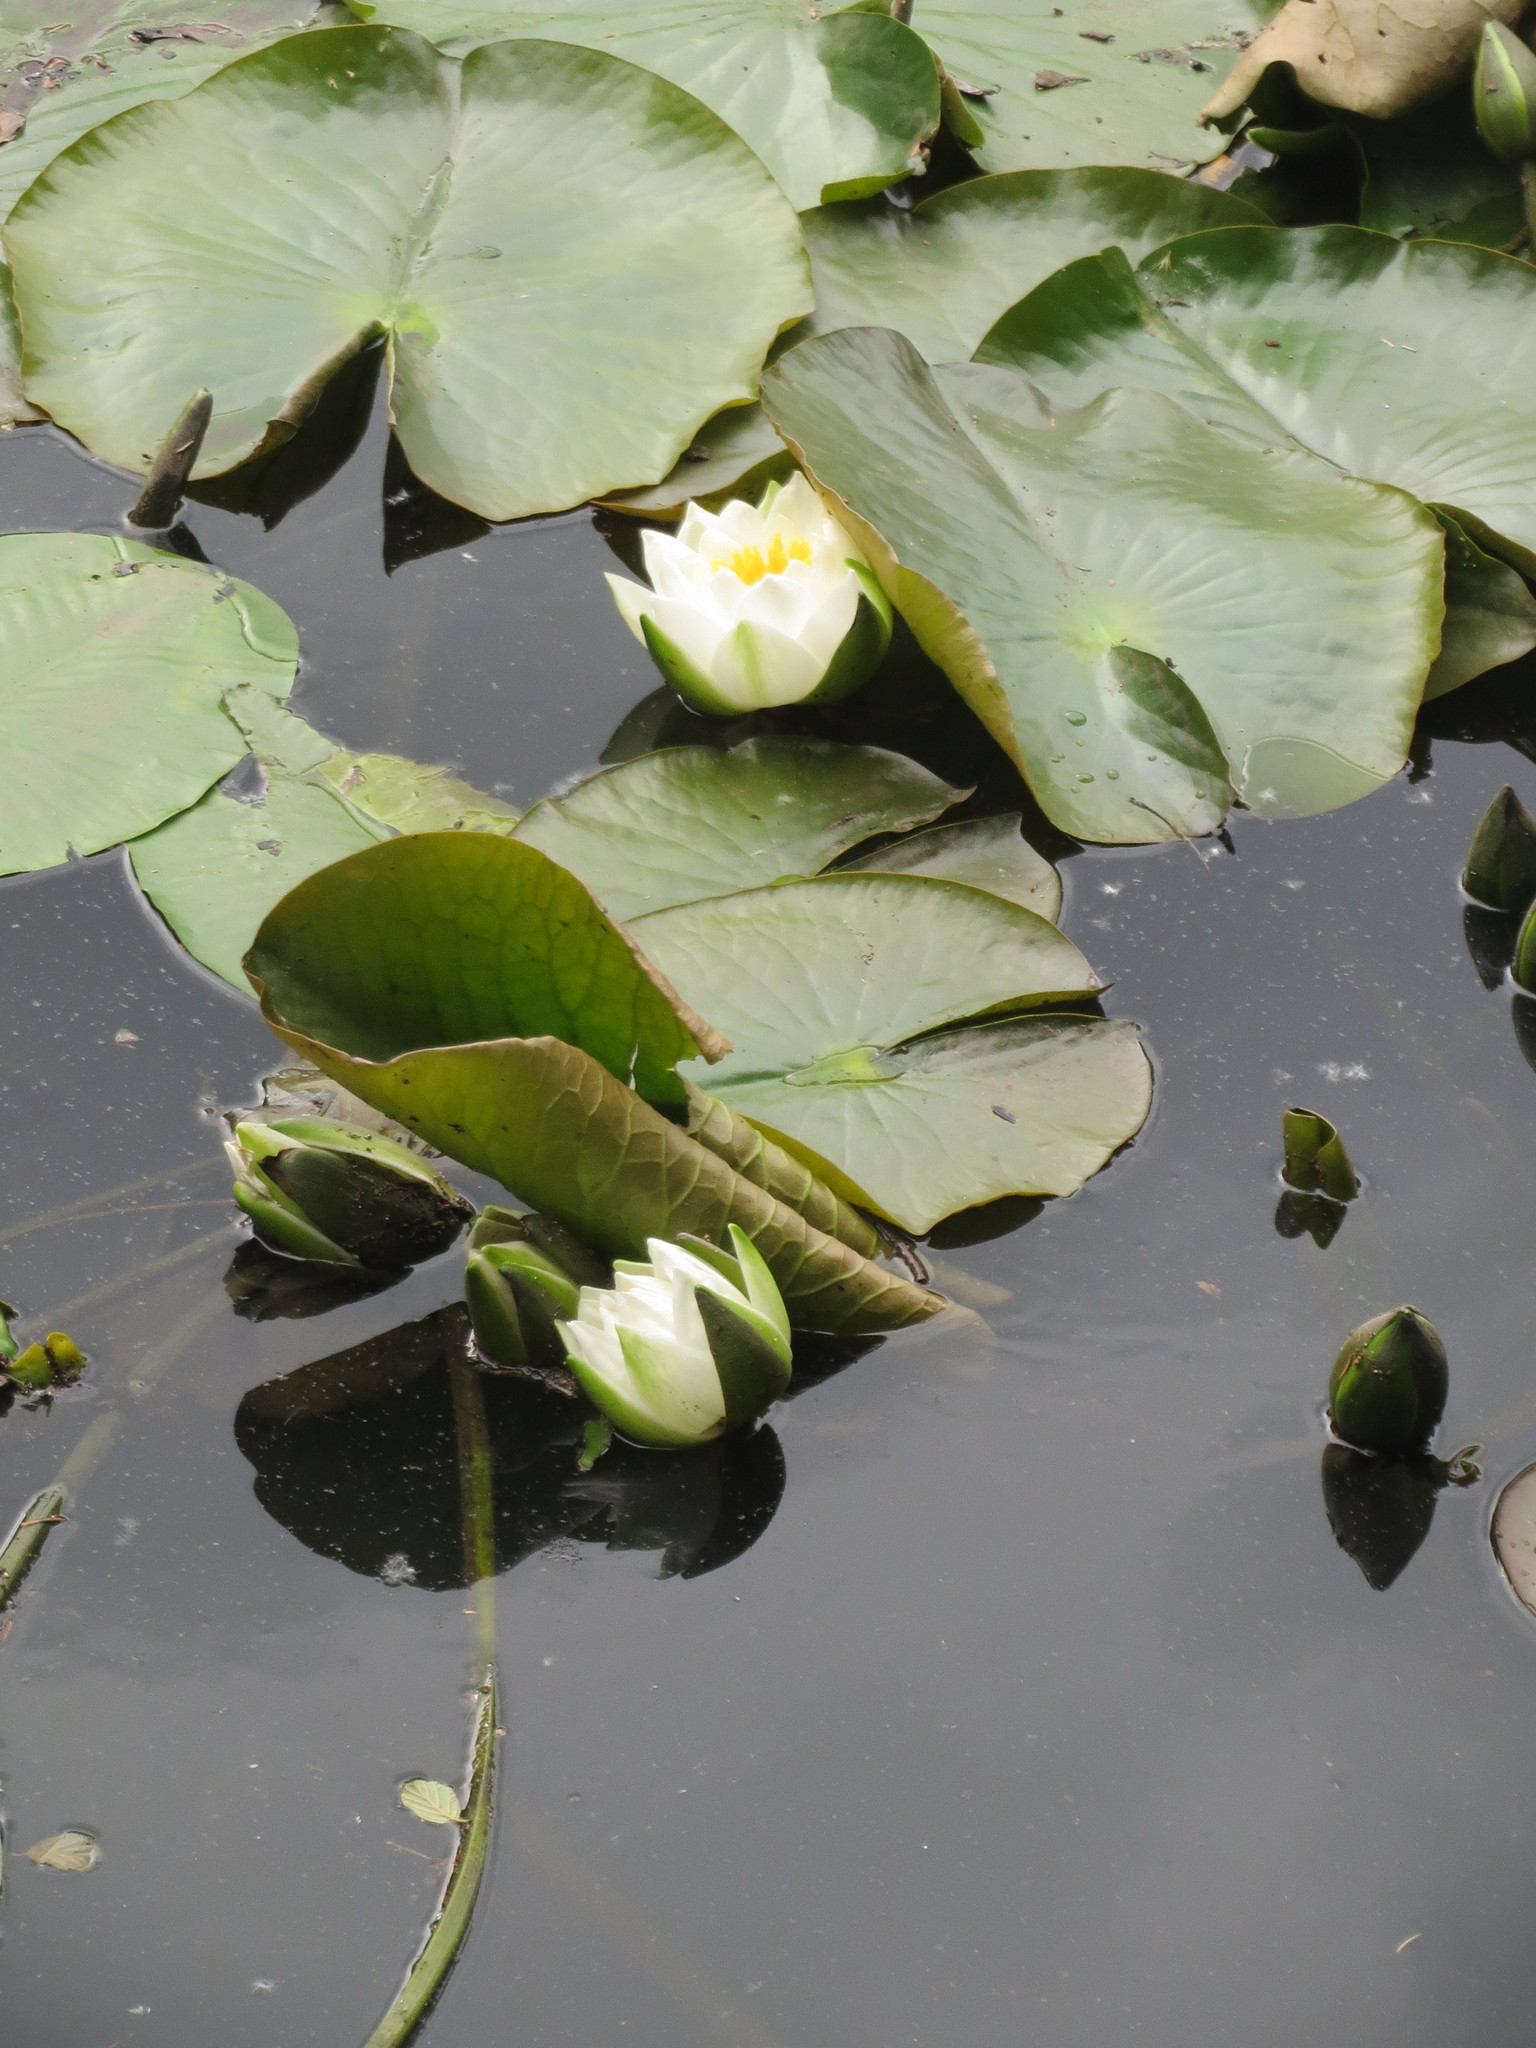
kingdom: Plantae
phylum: Tracheophyta
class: Magnoliopsida
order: Nymphaeales
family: Nymphaeaceae
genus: Nymphaea
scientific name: Nymphaea alba
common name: White water-lily
